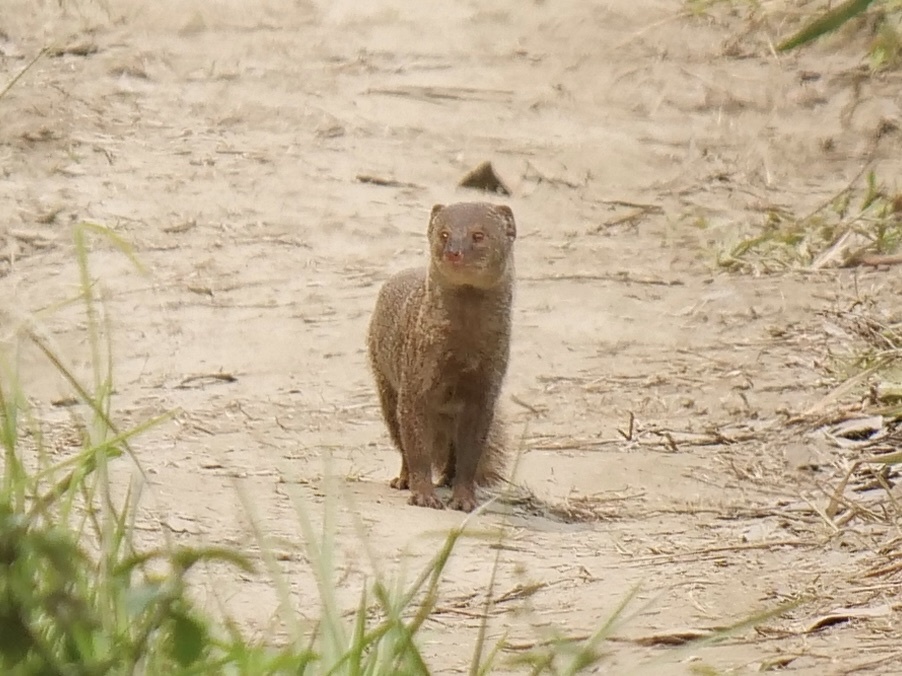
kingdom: Animalia
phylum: Chordata
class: Mammalia
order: Carnivora
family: Herpestidae
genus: Herpestes
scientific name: Herpestes edwardsi
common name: Indian gray mongoose
